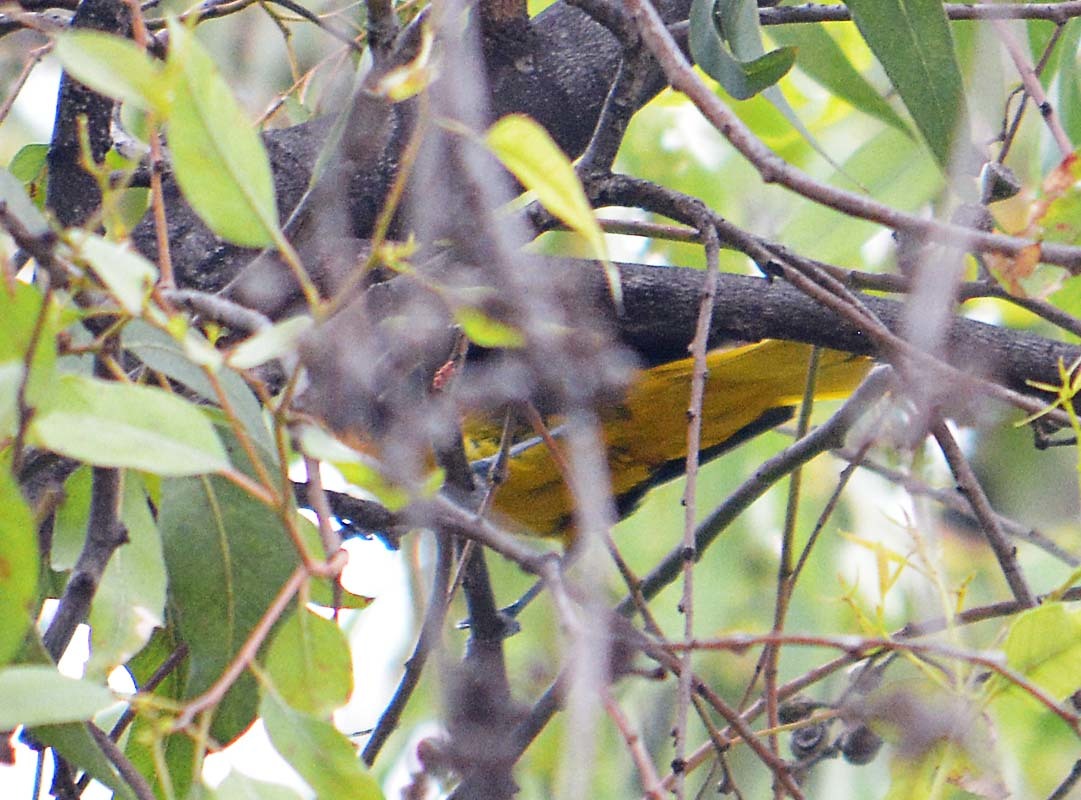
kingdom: Animalia
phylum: Chordata
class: Aves
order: Passeriformes
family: Icteridae
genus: Icterus
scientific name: Icterus abeillei
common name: Black-backed oriole
